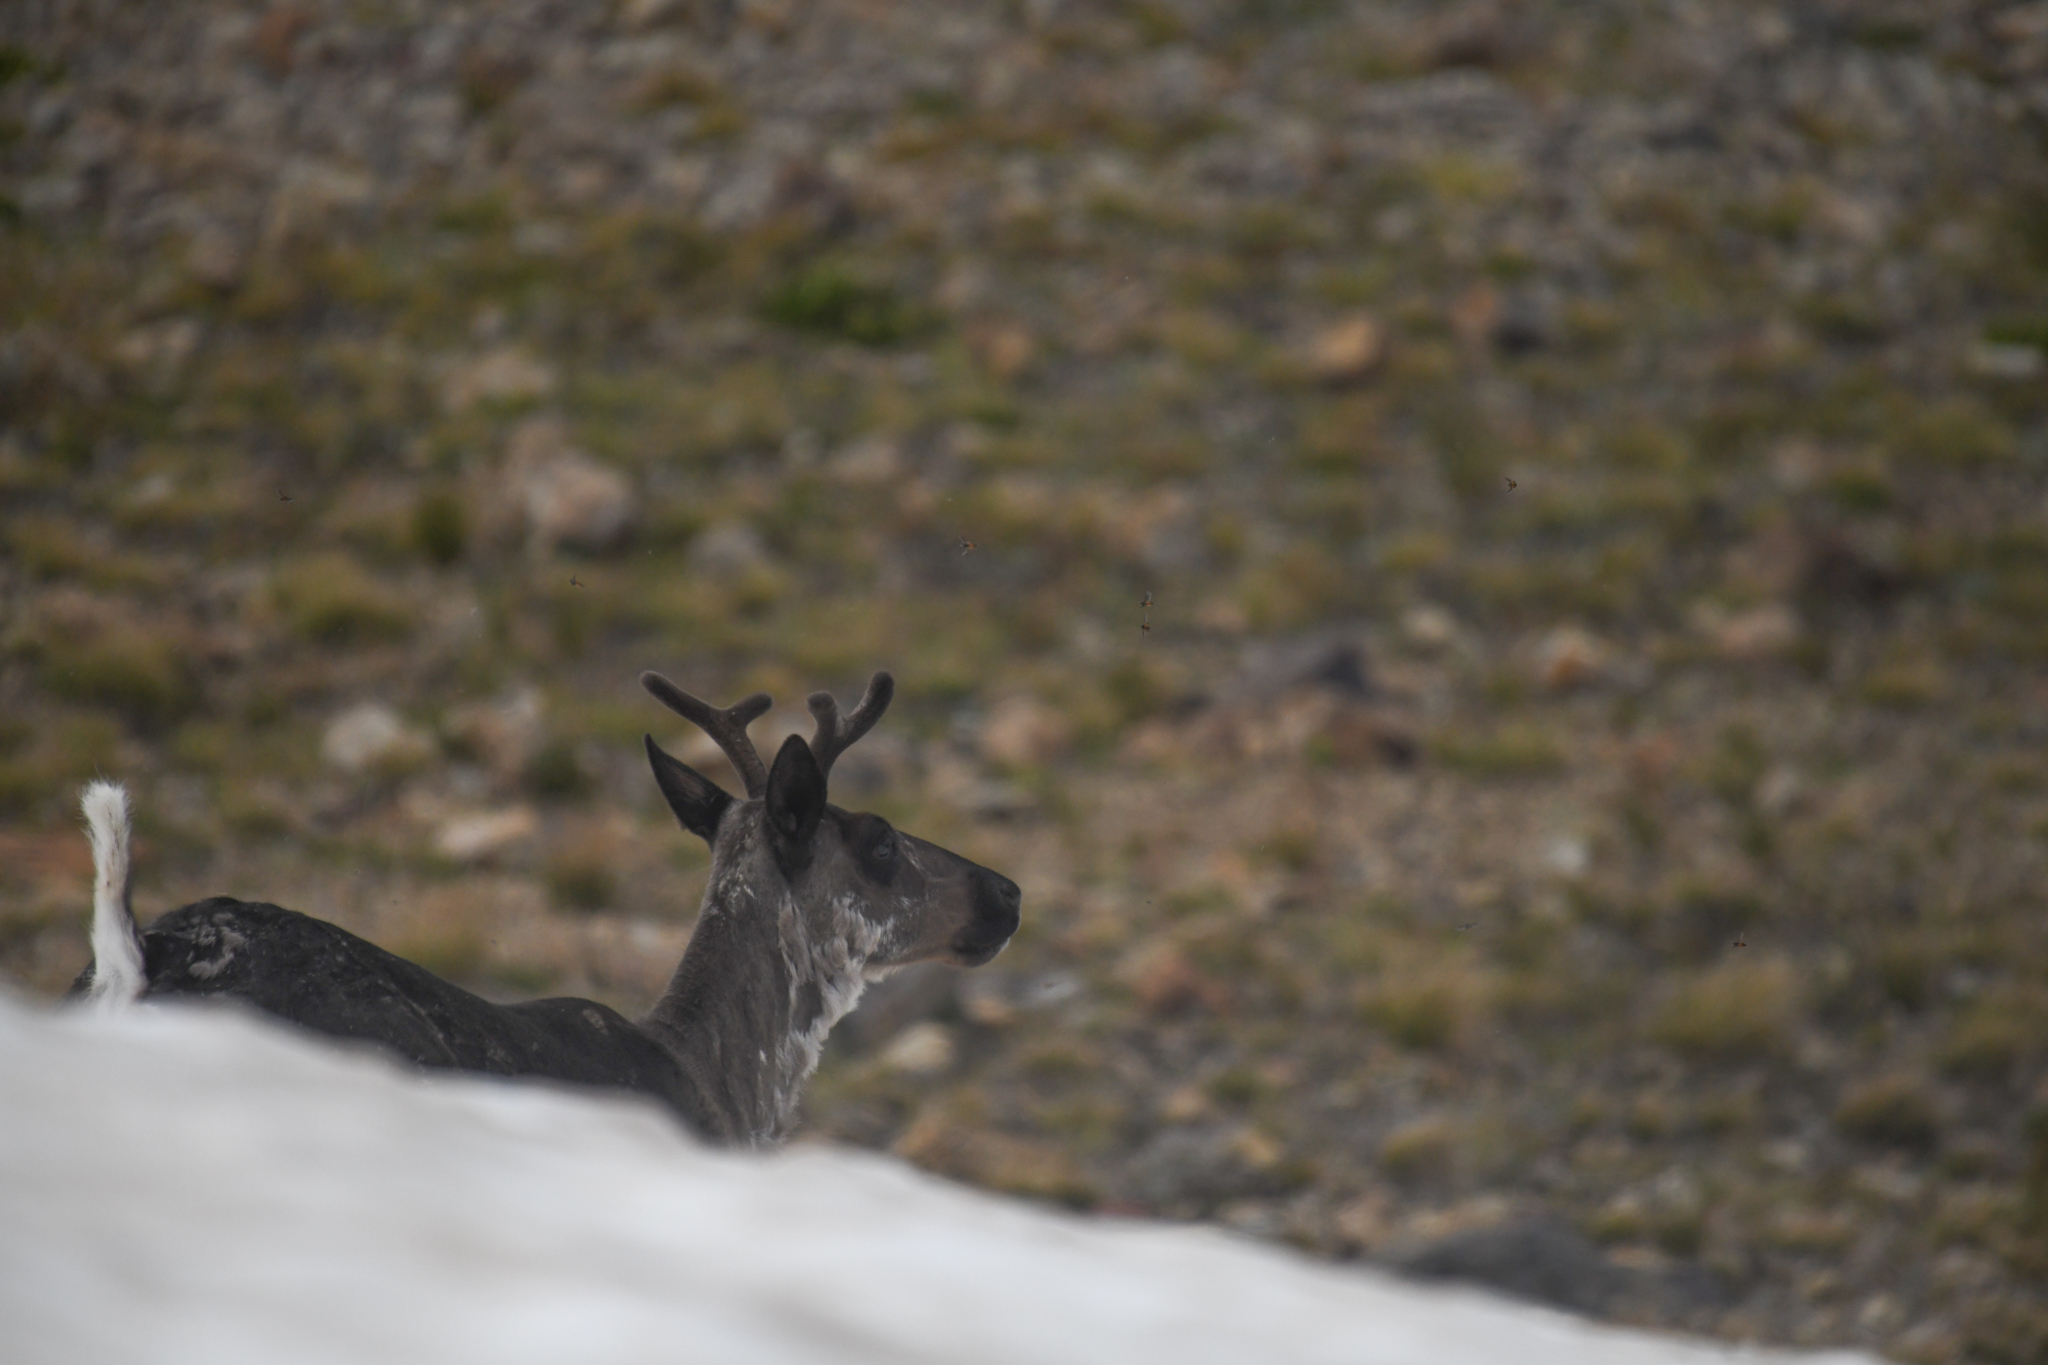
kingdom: Animalia
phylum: Chordata
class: Mammalia
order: Artiodactyla
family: Cervidae
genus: Rangifer
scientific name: Rangifer tarandus
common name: Reindeer
